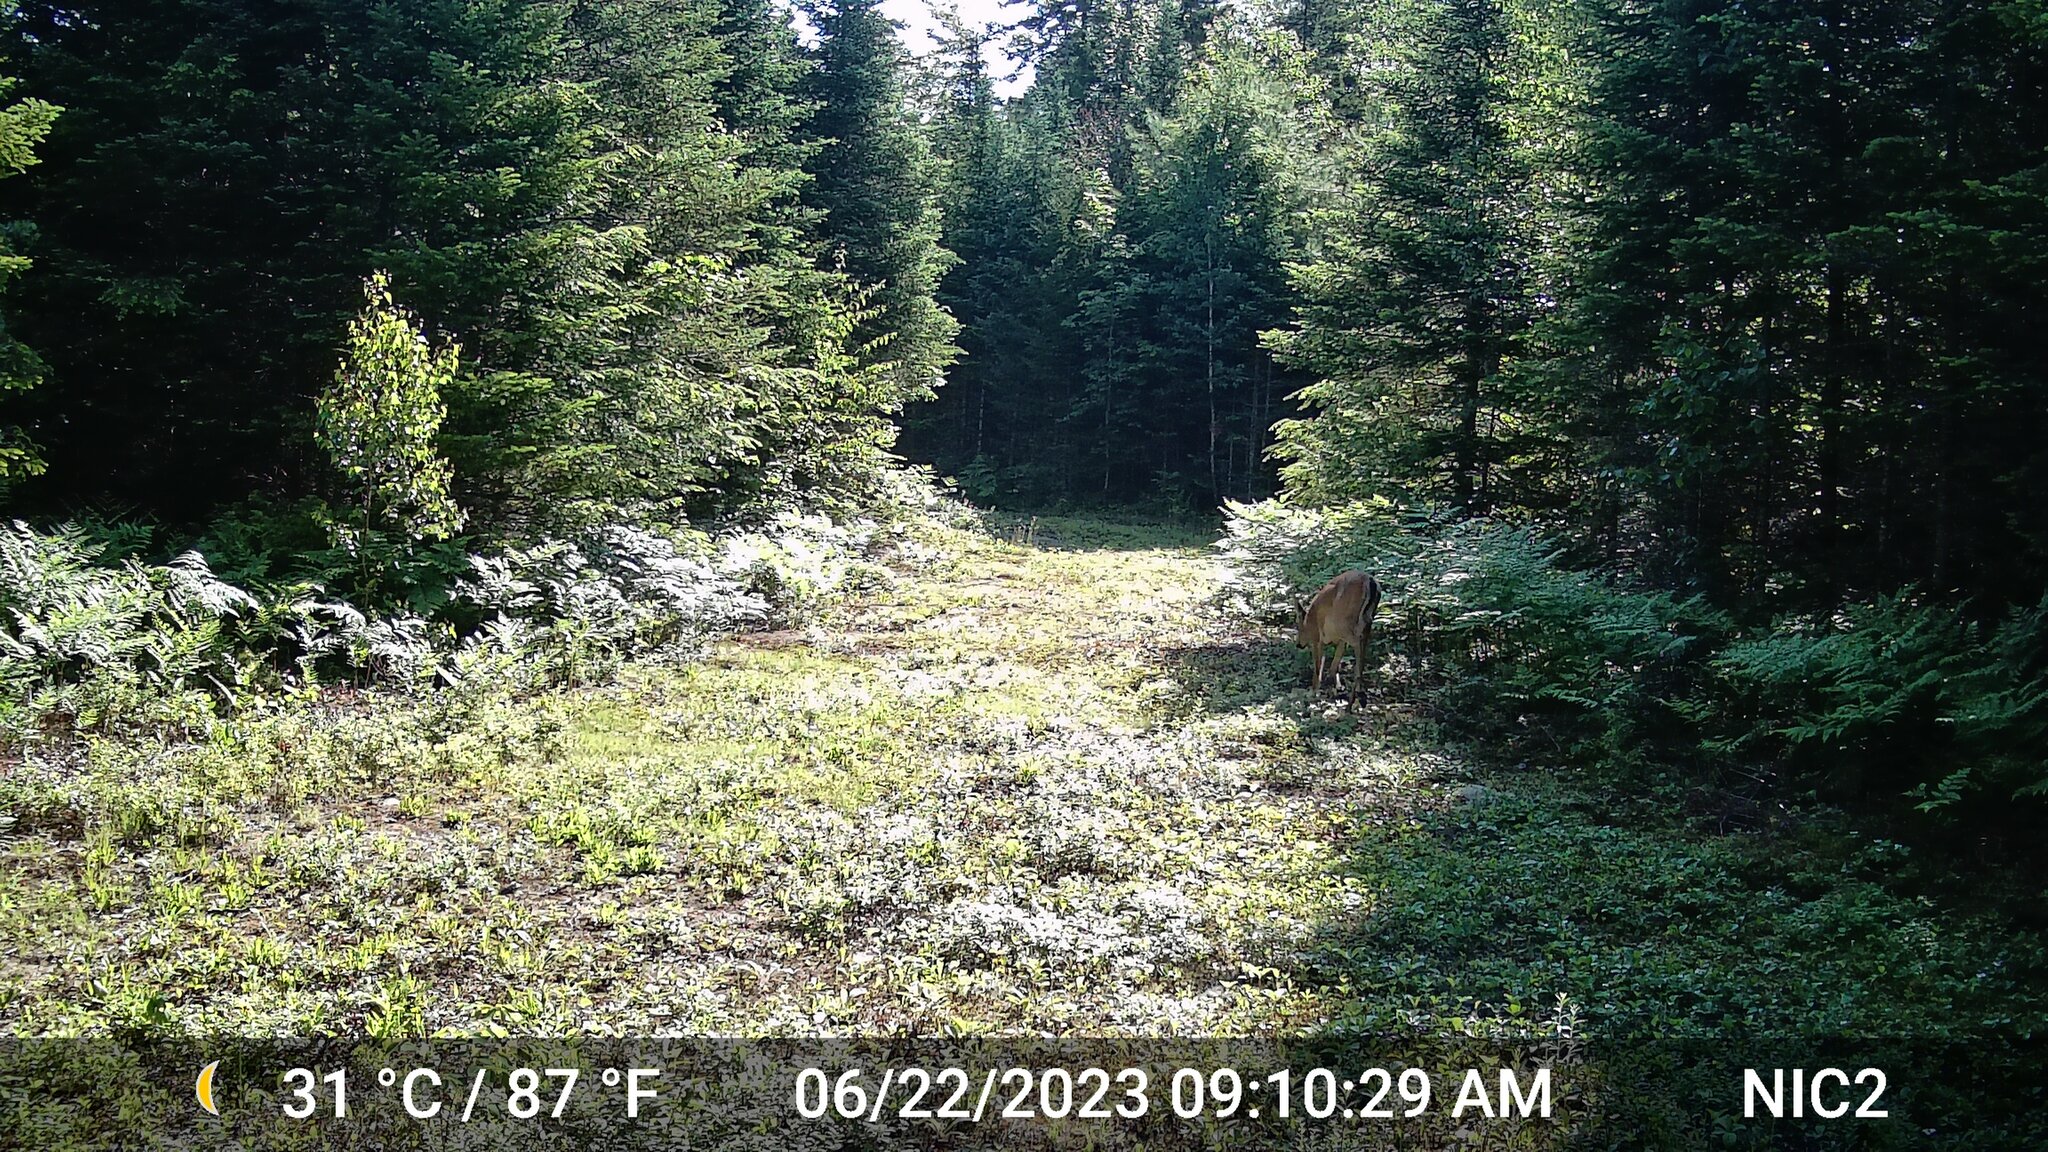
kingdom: Animalia
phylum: Chordata
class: Mammalia
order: Artiodactyla
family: Cervidae
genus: Odocoileus
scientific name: Odocoileus virginianus
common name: White-tailed deer
